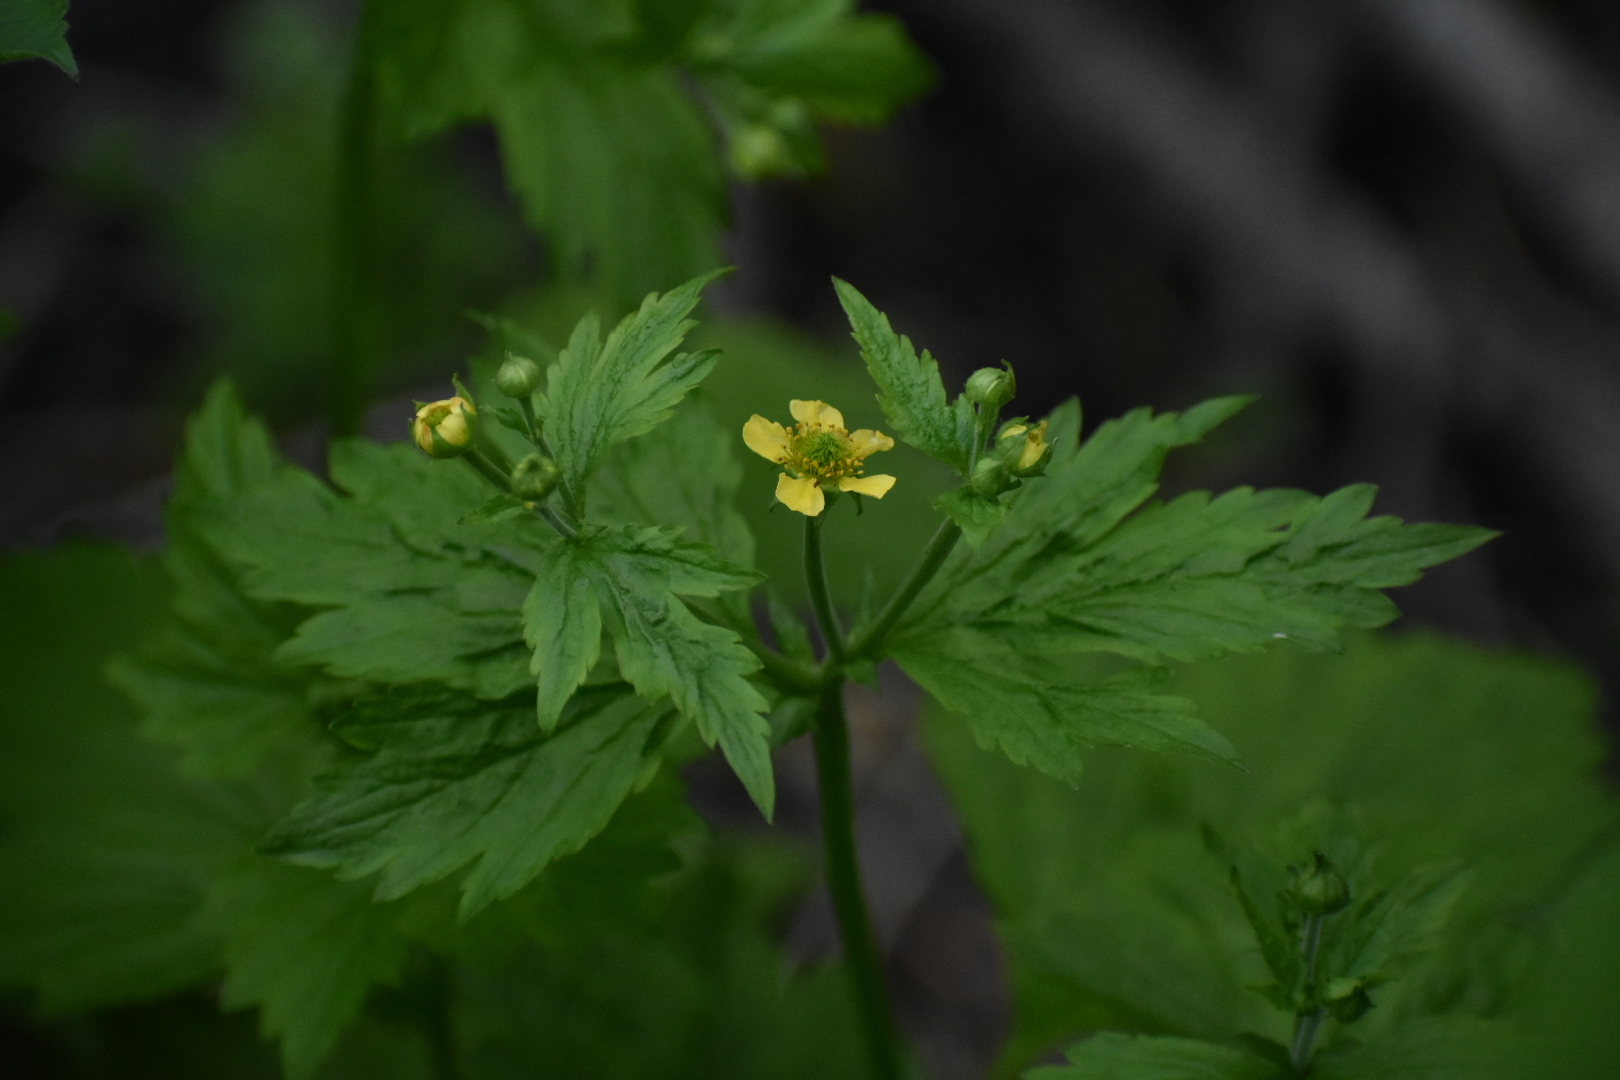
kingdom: Plantae
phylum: Tracheophyta
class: Magnoliopsida
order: Rosales
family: Rosaceae
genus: Geum
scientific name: Geum macrophyllum
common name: Large-leaved avens
